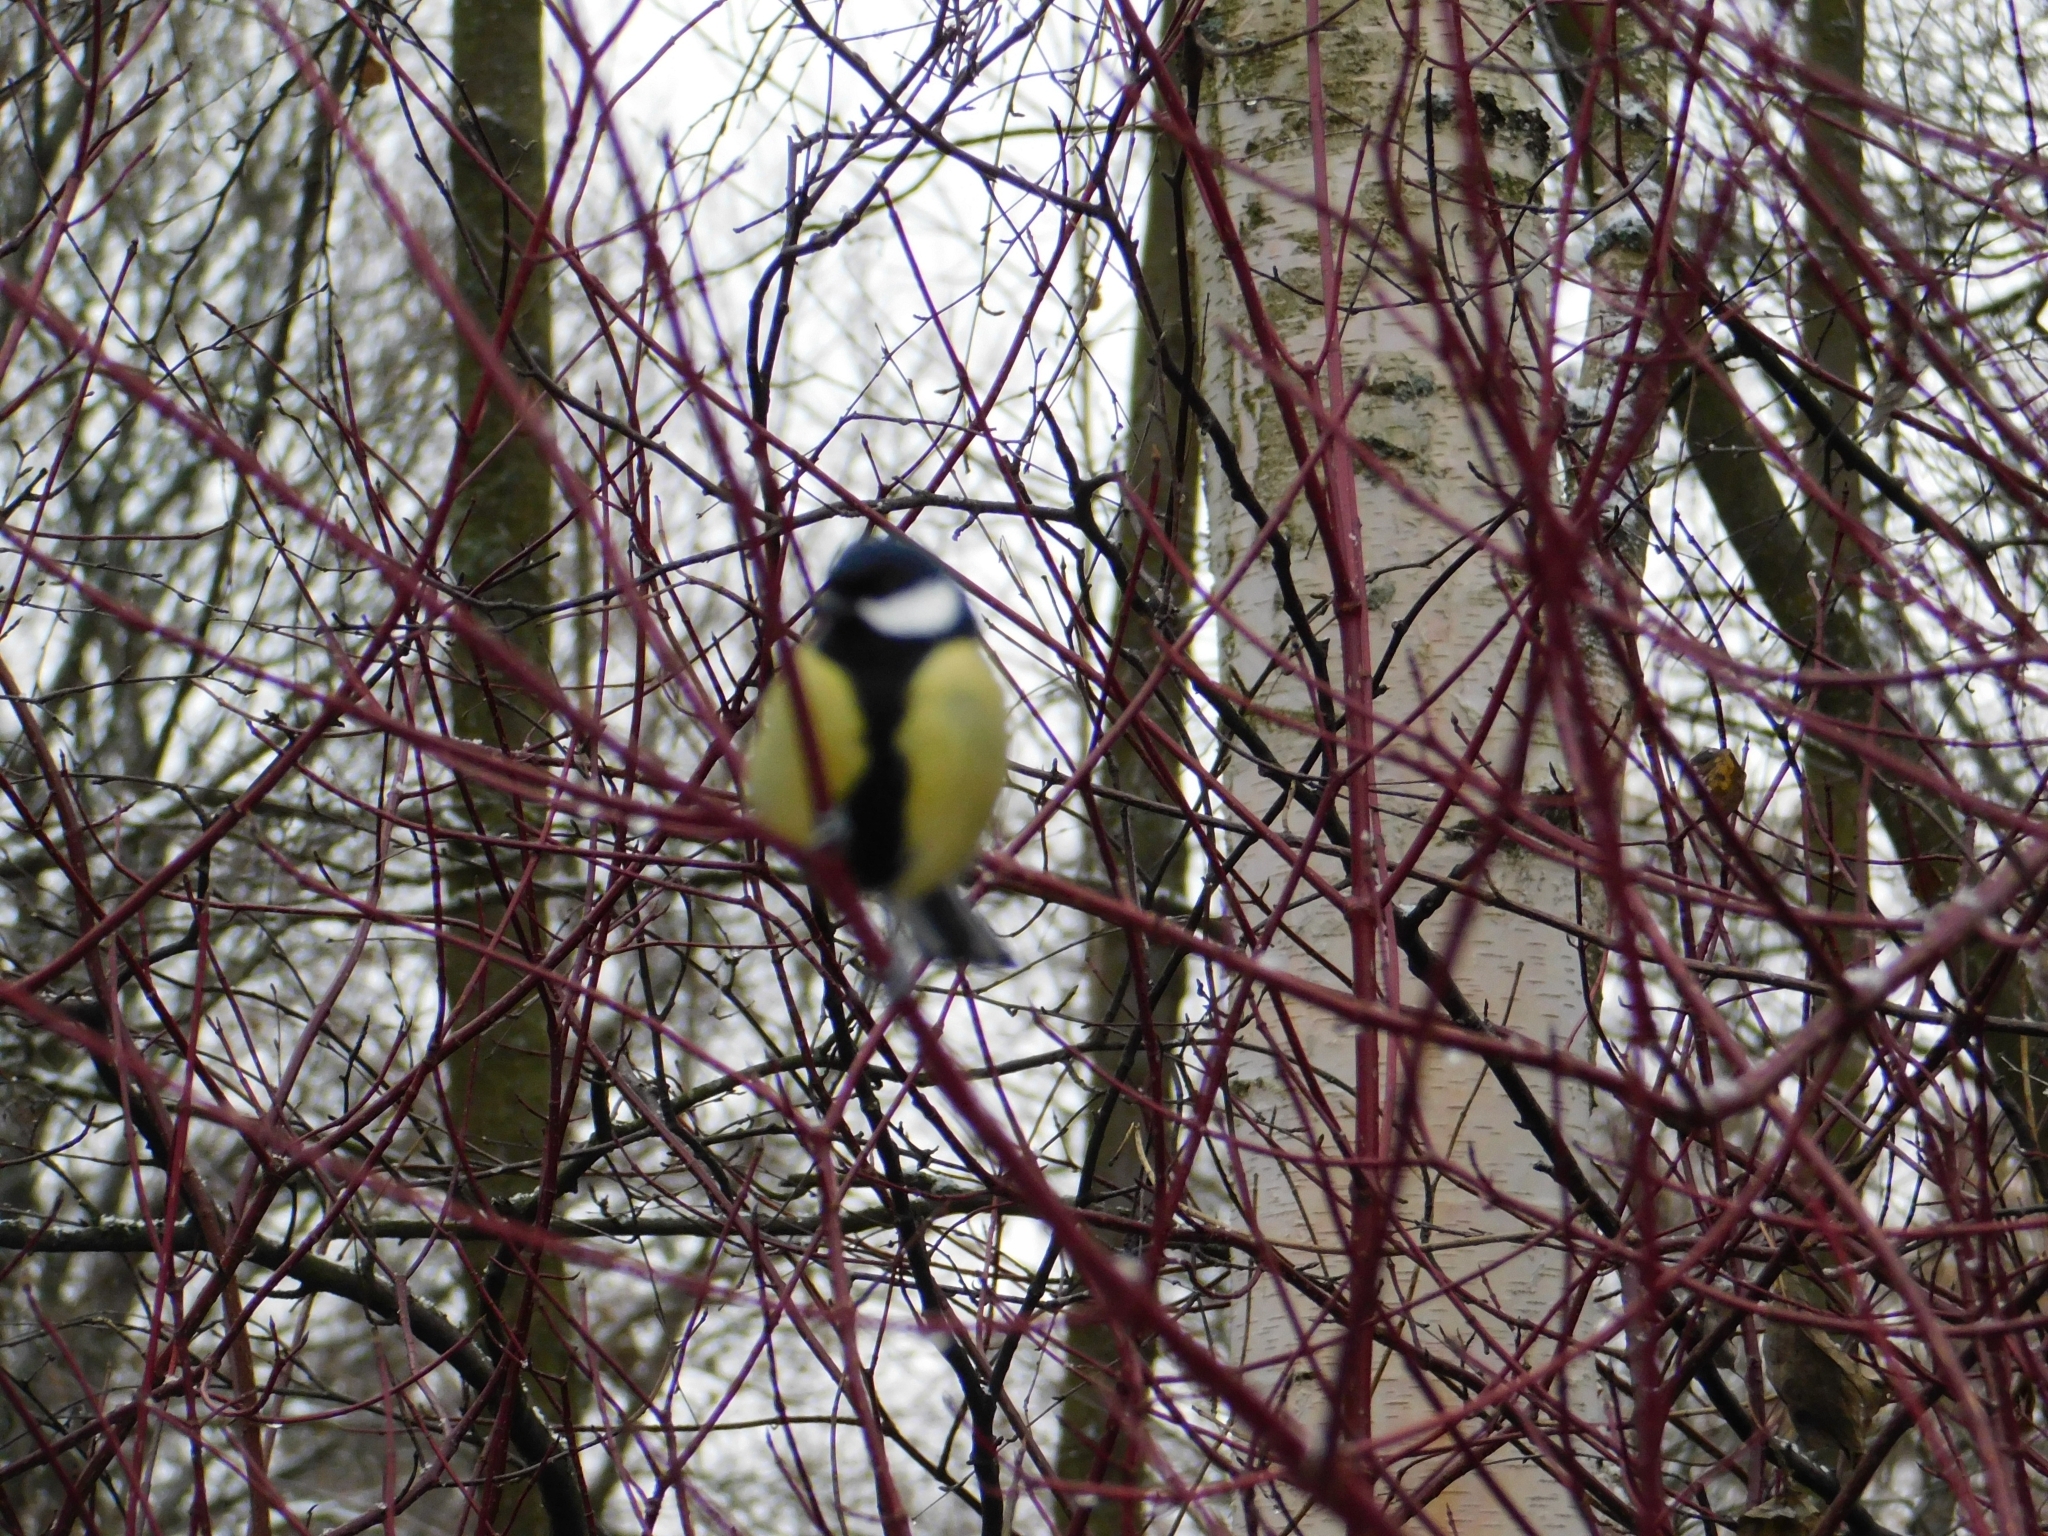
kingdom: Animalia
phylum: Chordata
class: Aves
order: Passeriformes
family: Paridae
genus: Parus
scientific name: Parus major
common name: Great tit
